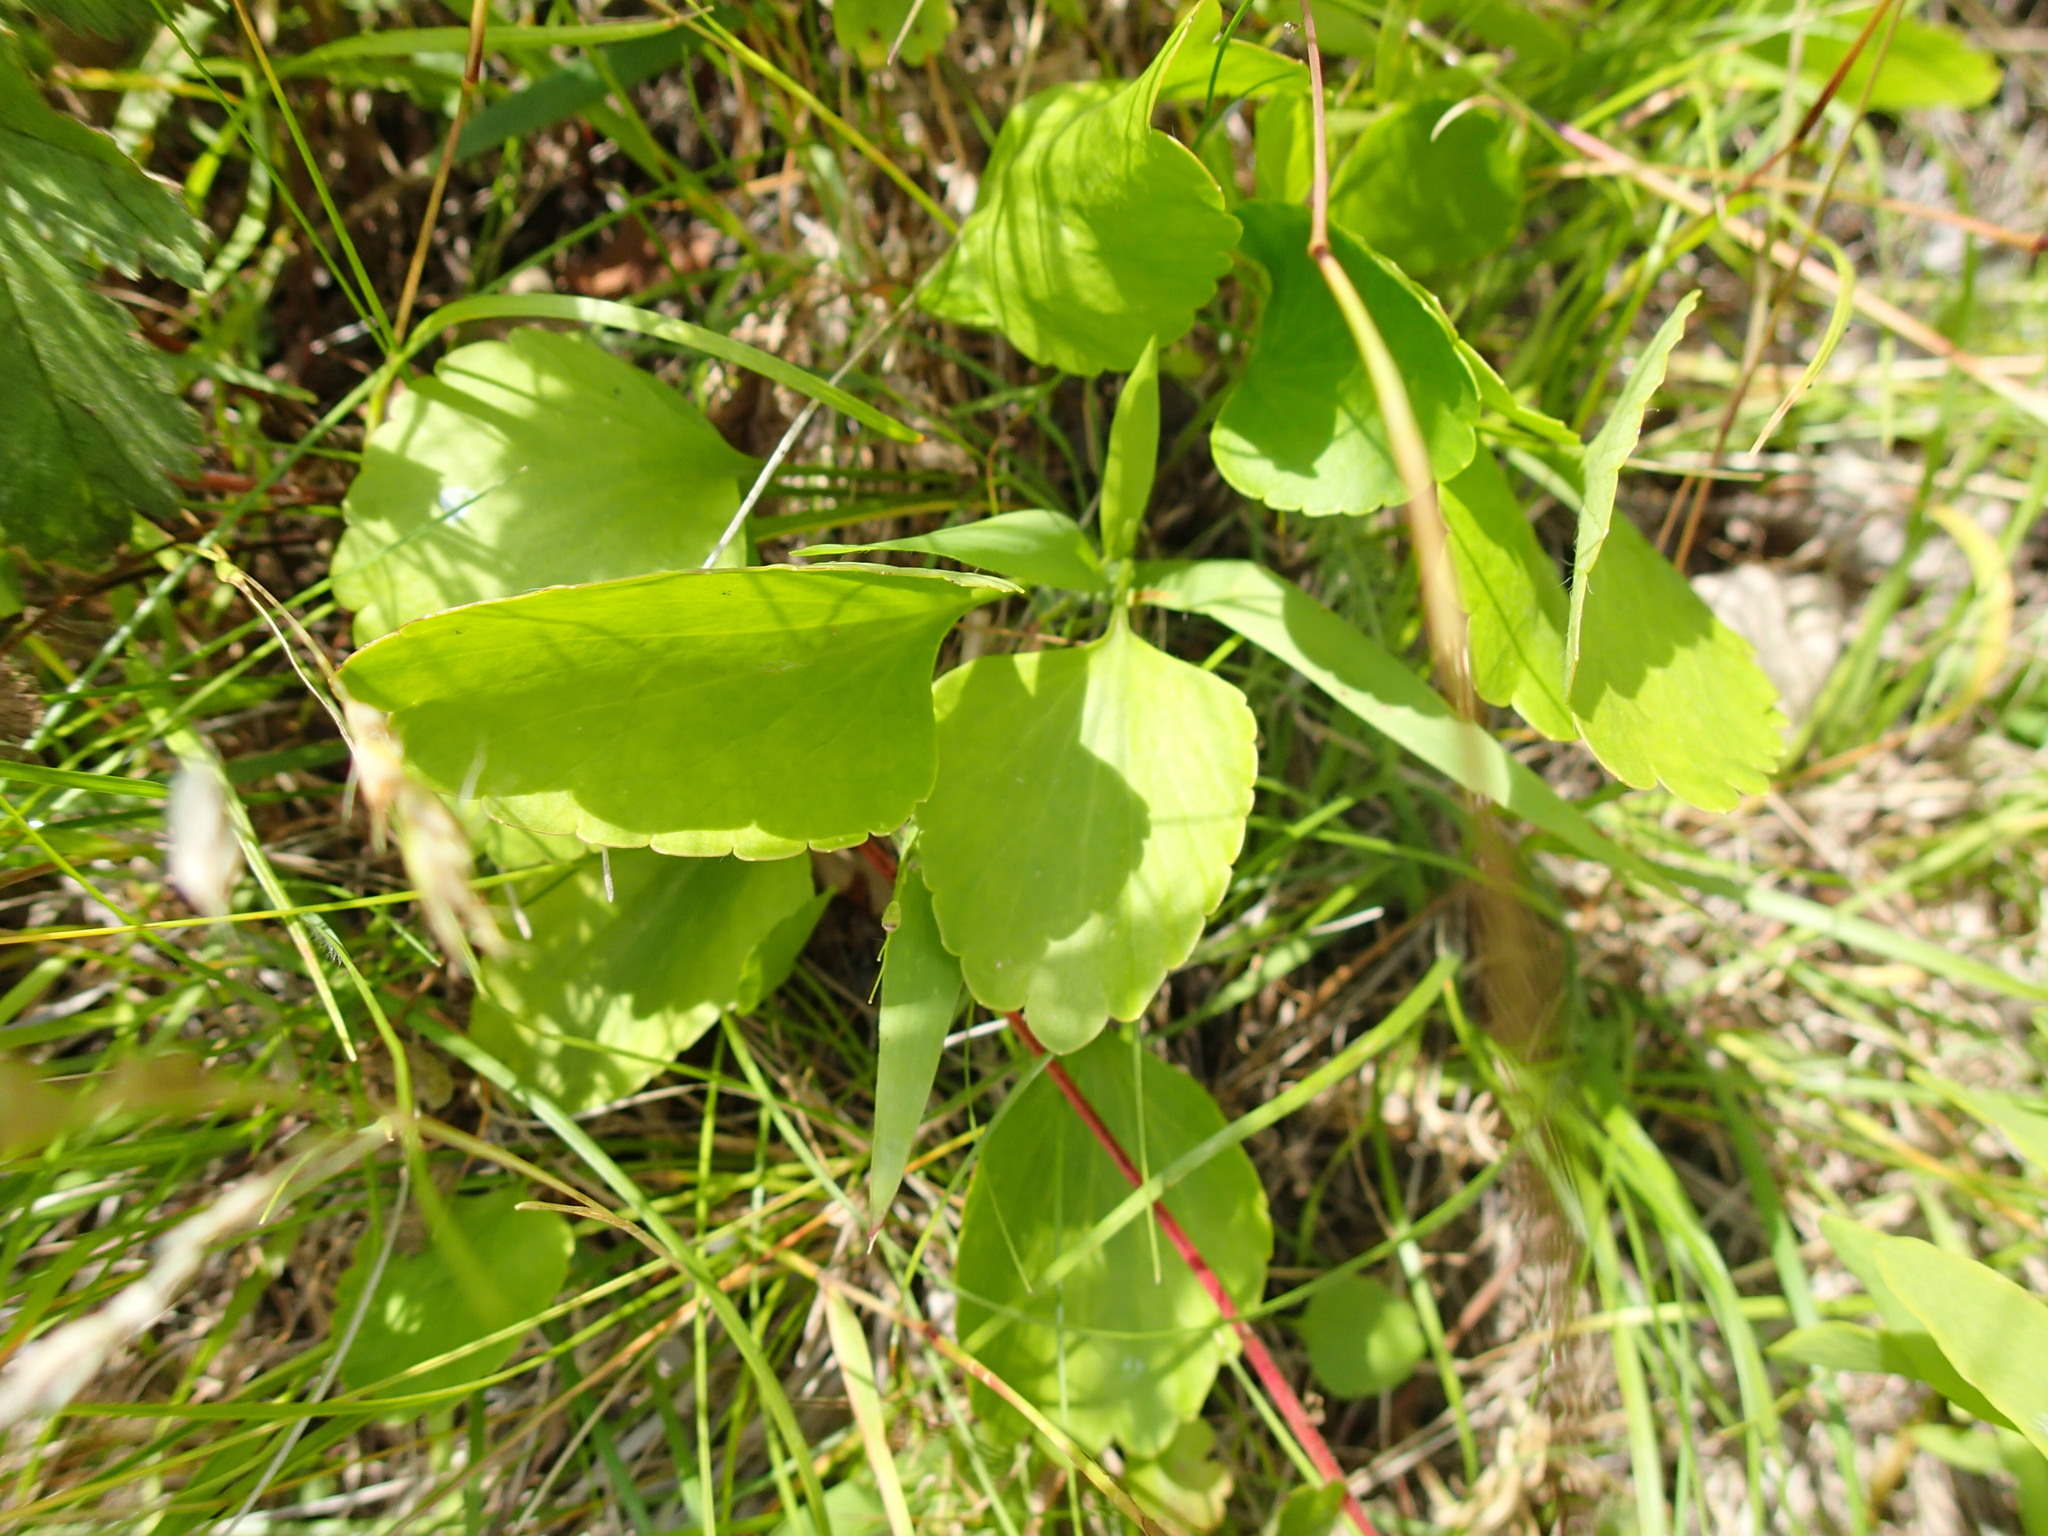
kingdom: Plantae
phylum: Tracheophyta
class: Magnoliopsida
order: Ranunculales
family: Ranunculaceae
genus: Ranunculus
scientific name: Ranunculus rhomboideus
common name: Prairie buttercup
